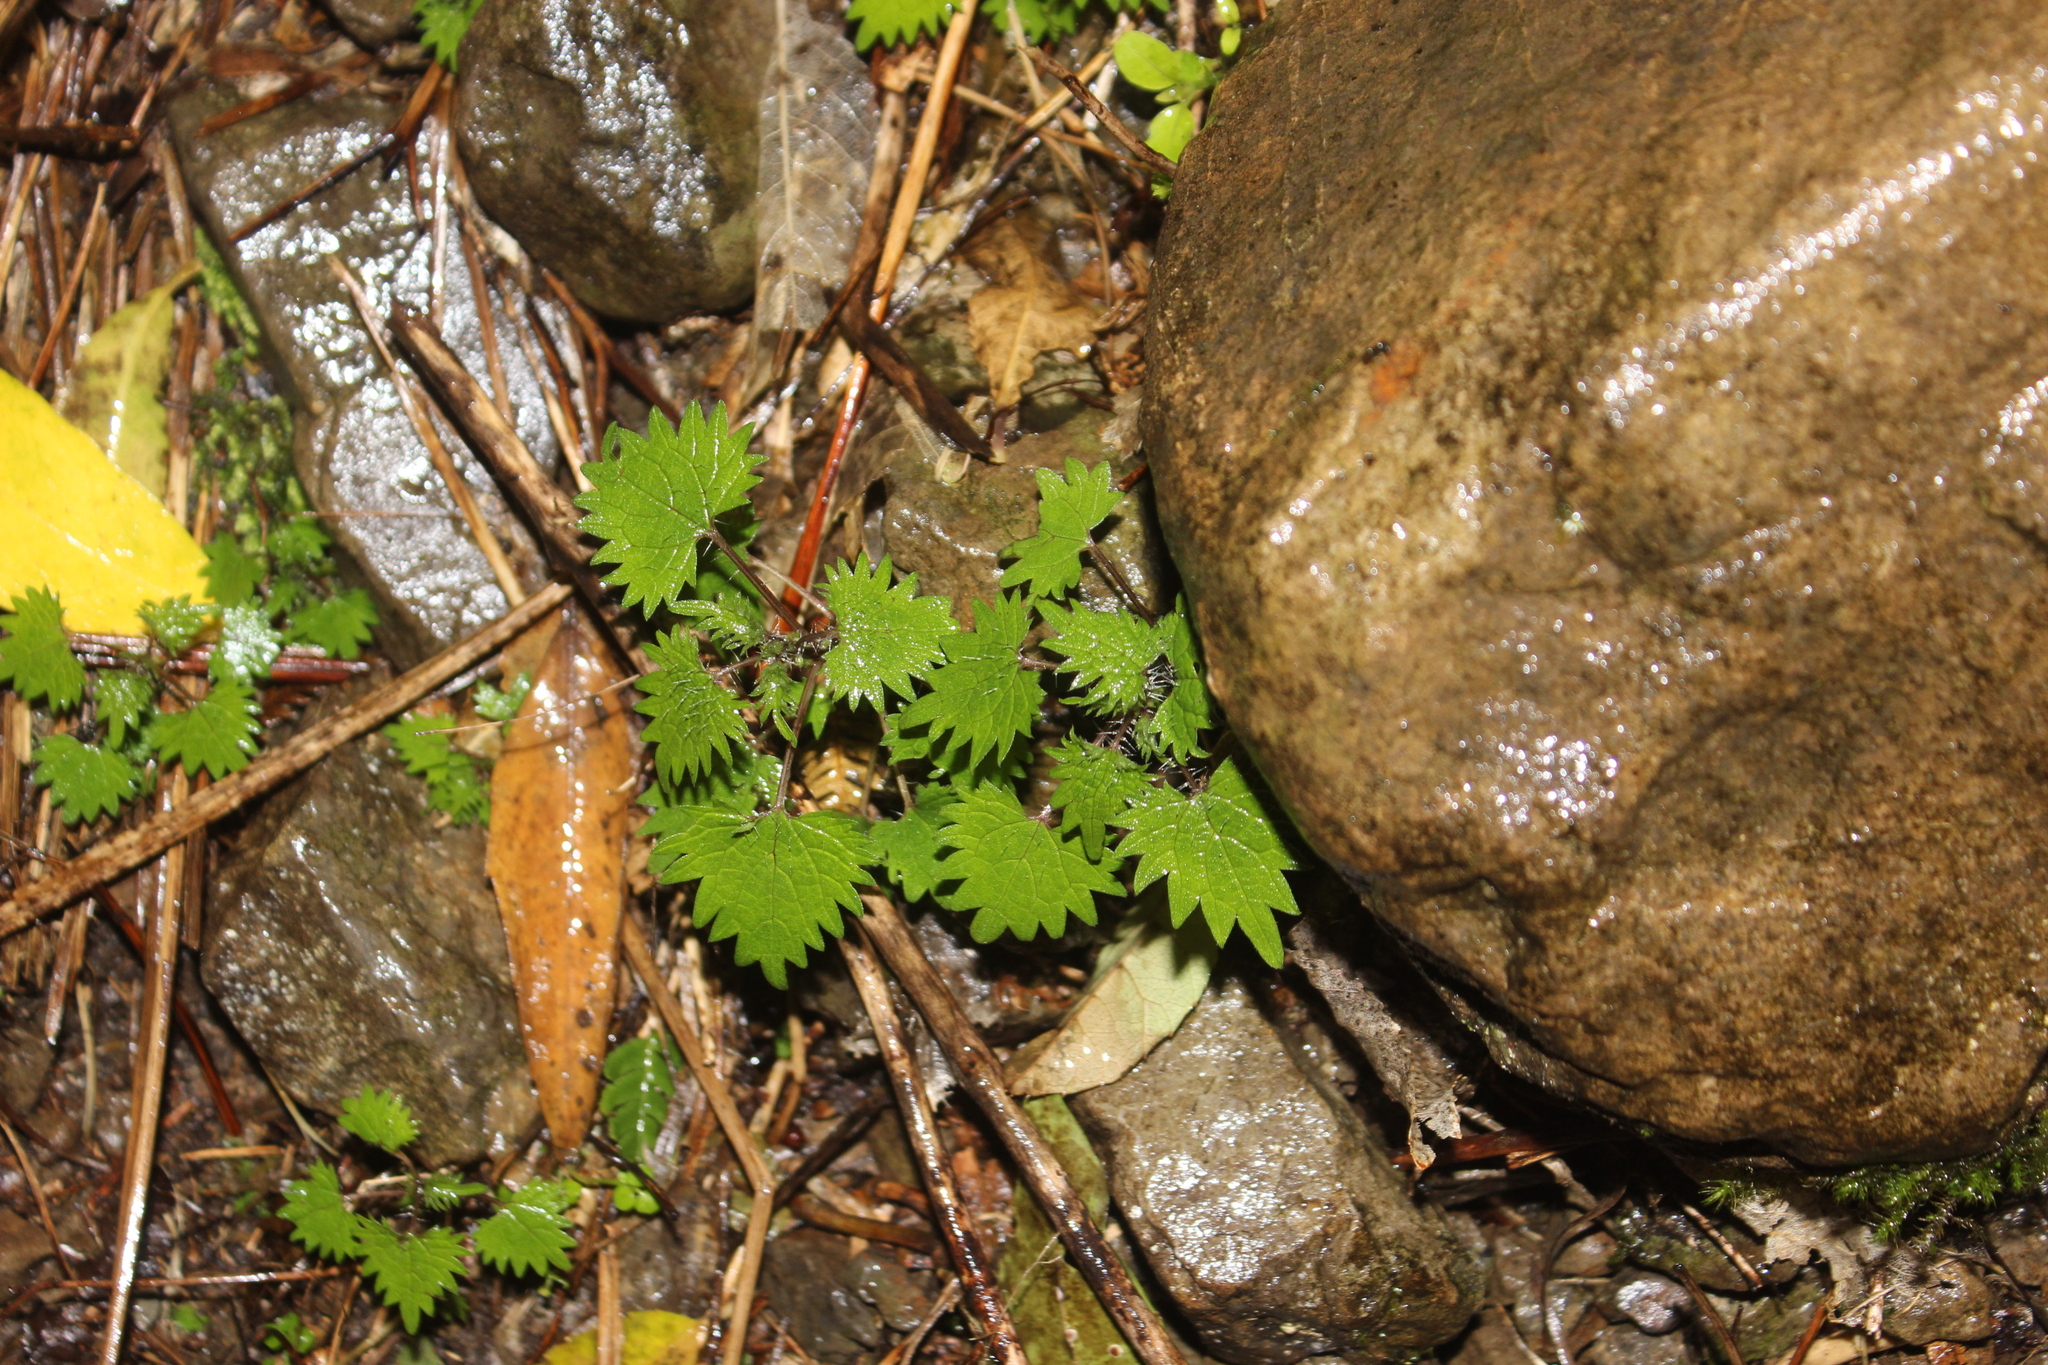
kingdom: Plantae
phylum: Tracheophyta
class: Magnoliopsida
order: Rosales
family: Urticaceae
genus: Urtica
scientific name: Urtica sykesii
